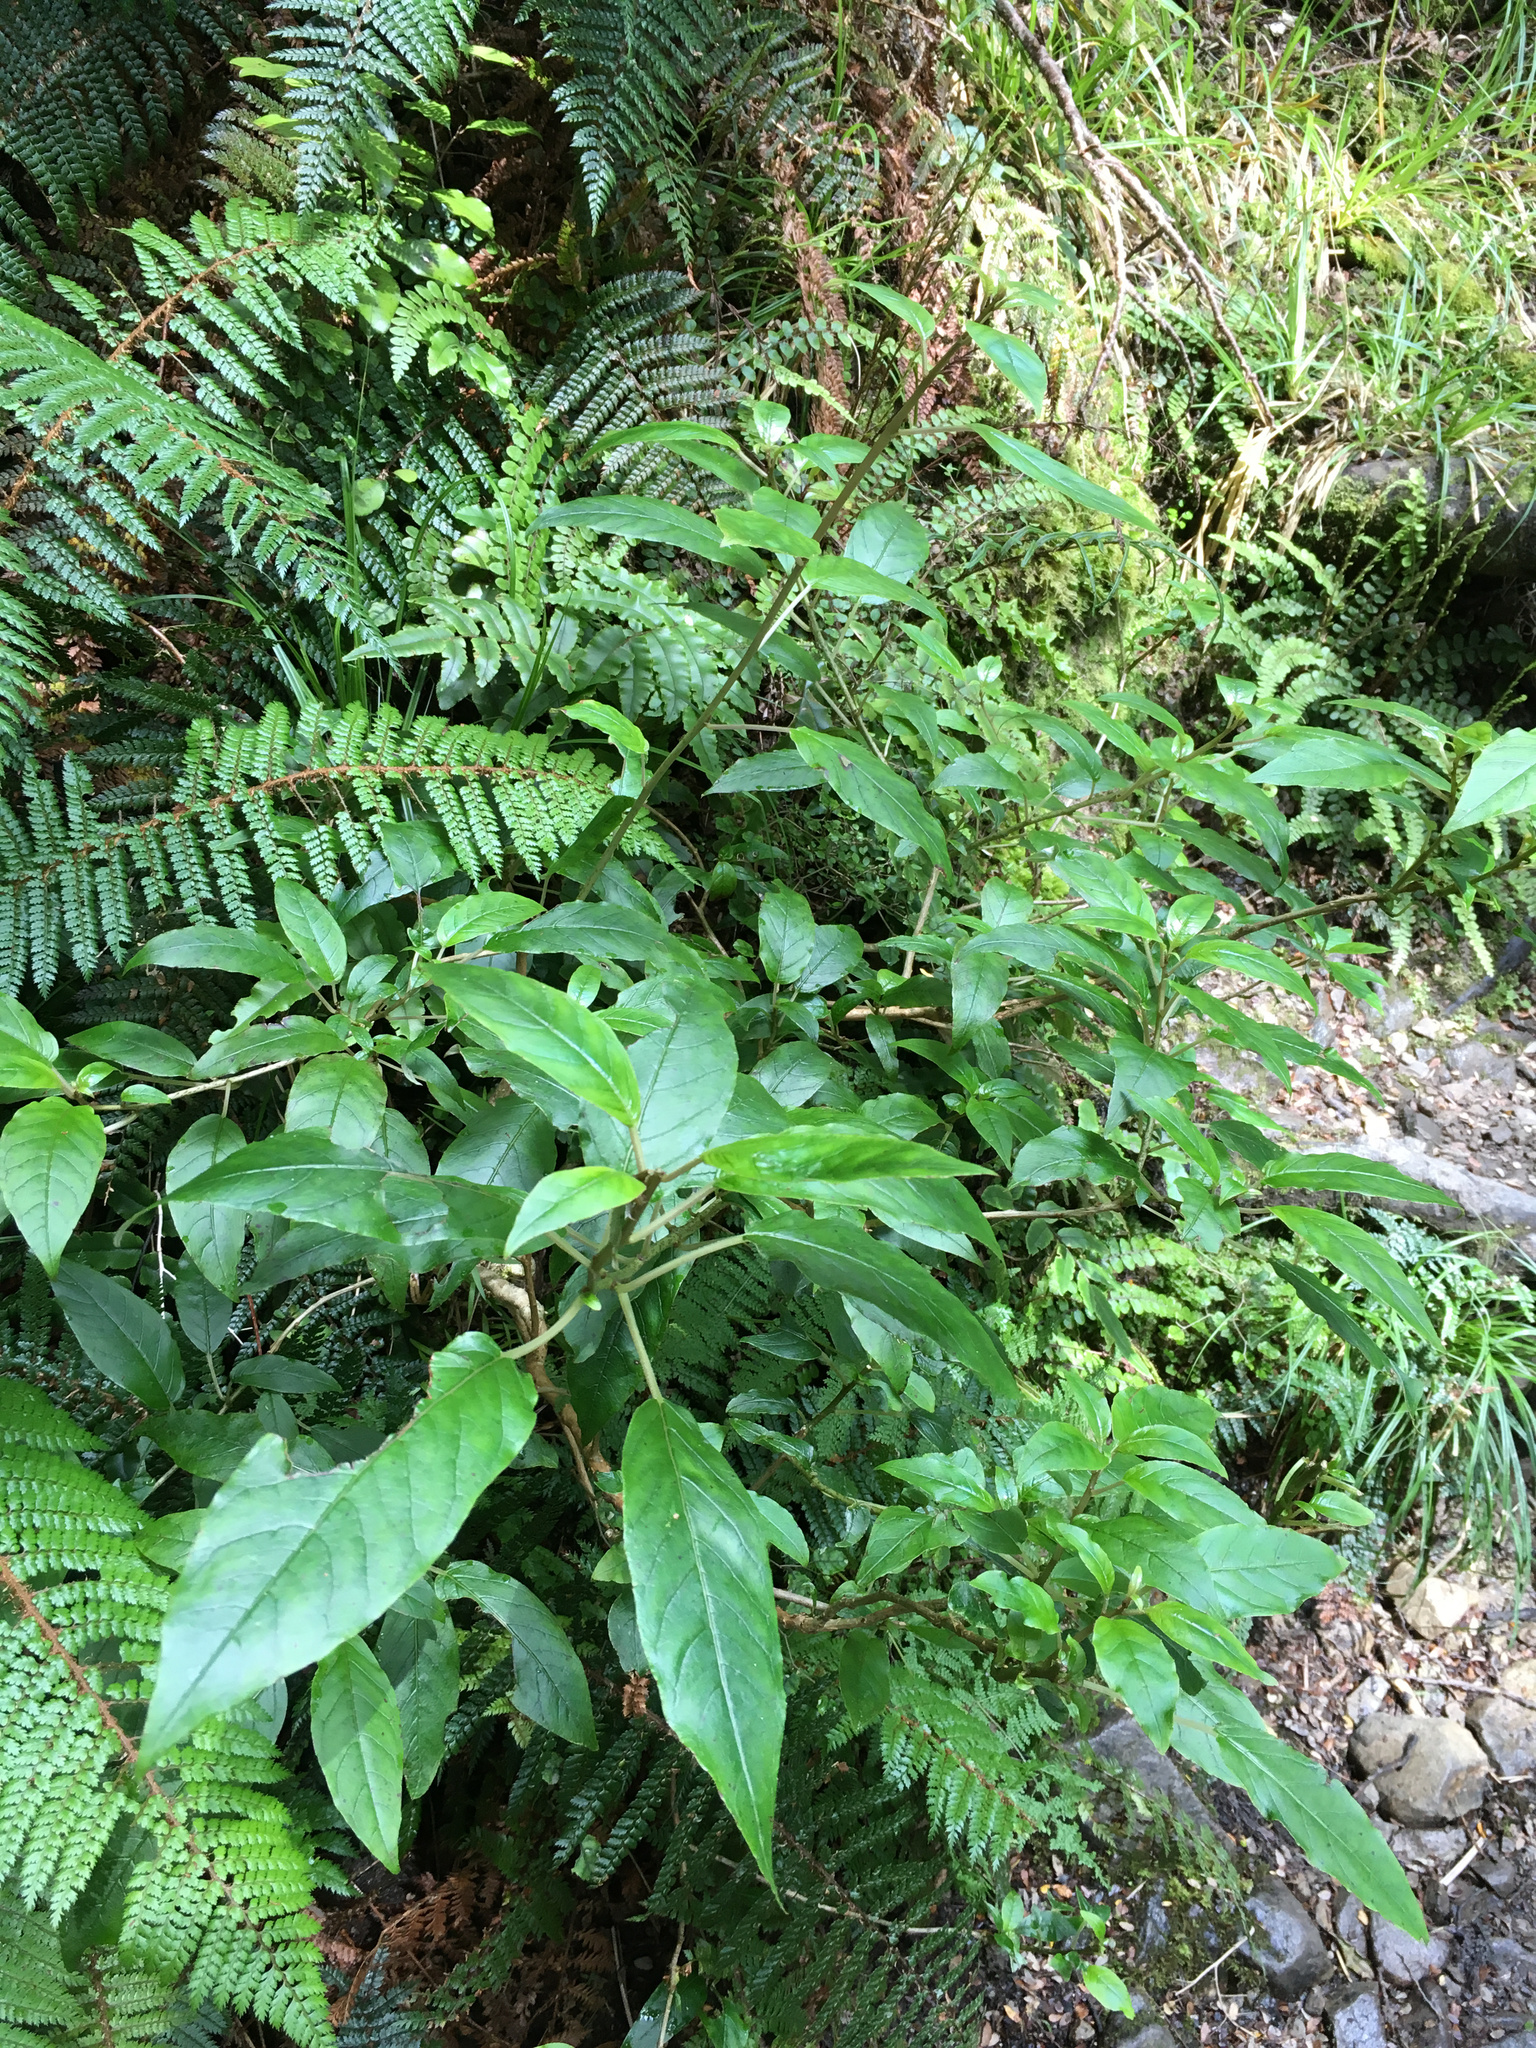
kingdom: Plantae
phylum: Tracheophyta
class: Magnoliopsida
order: Myrtales
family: Onagraceae
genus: Fuchsia
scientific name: Fuchsia excorticata
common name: Tree fuchsia
